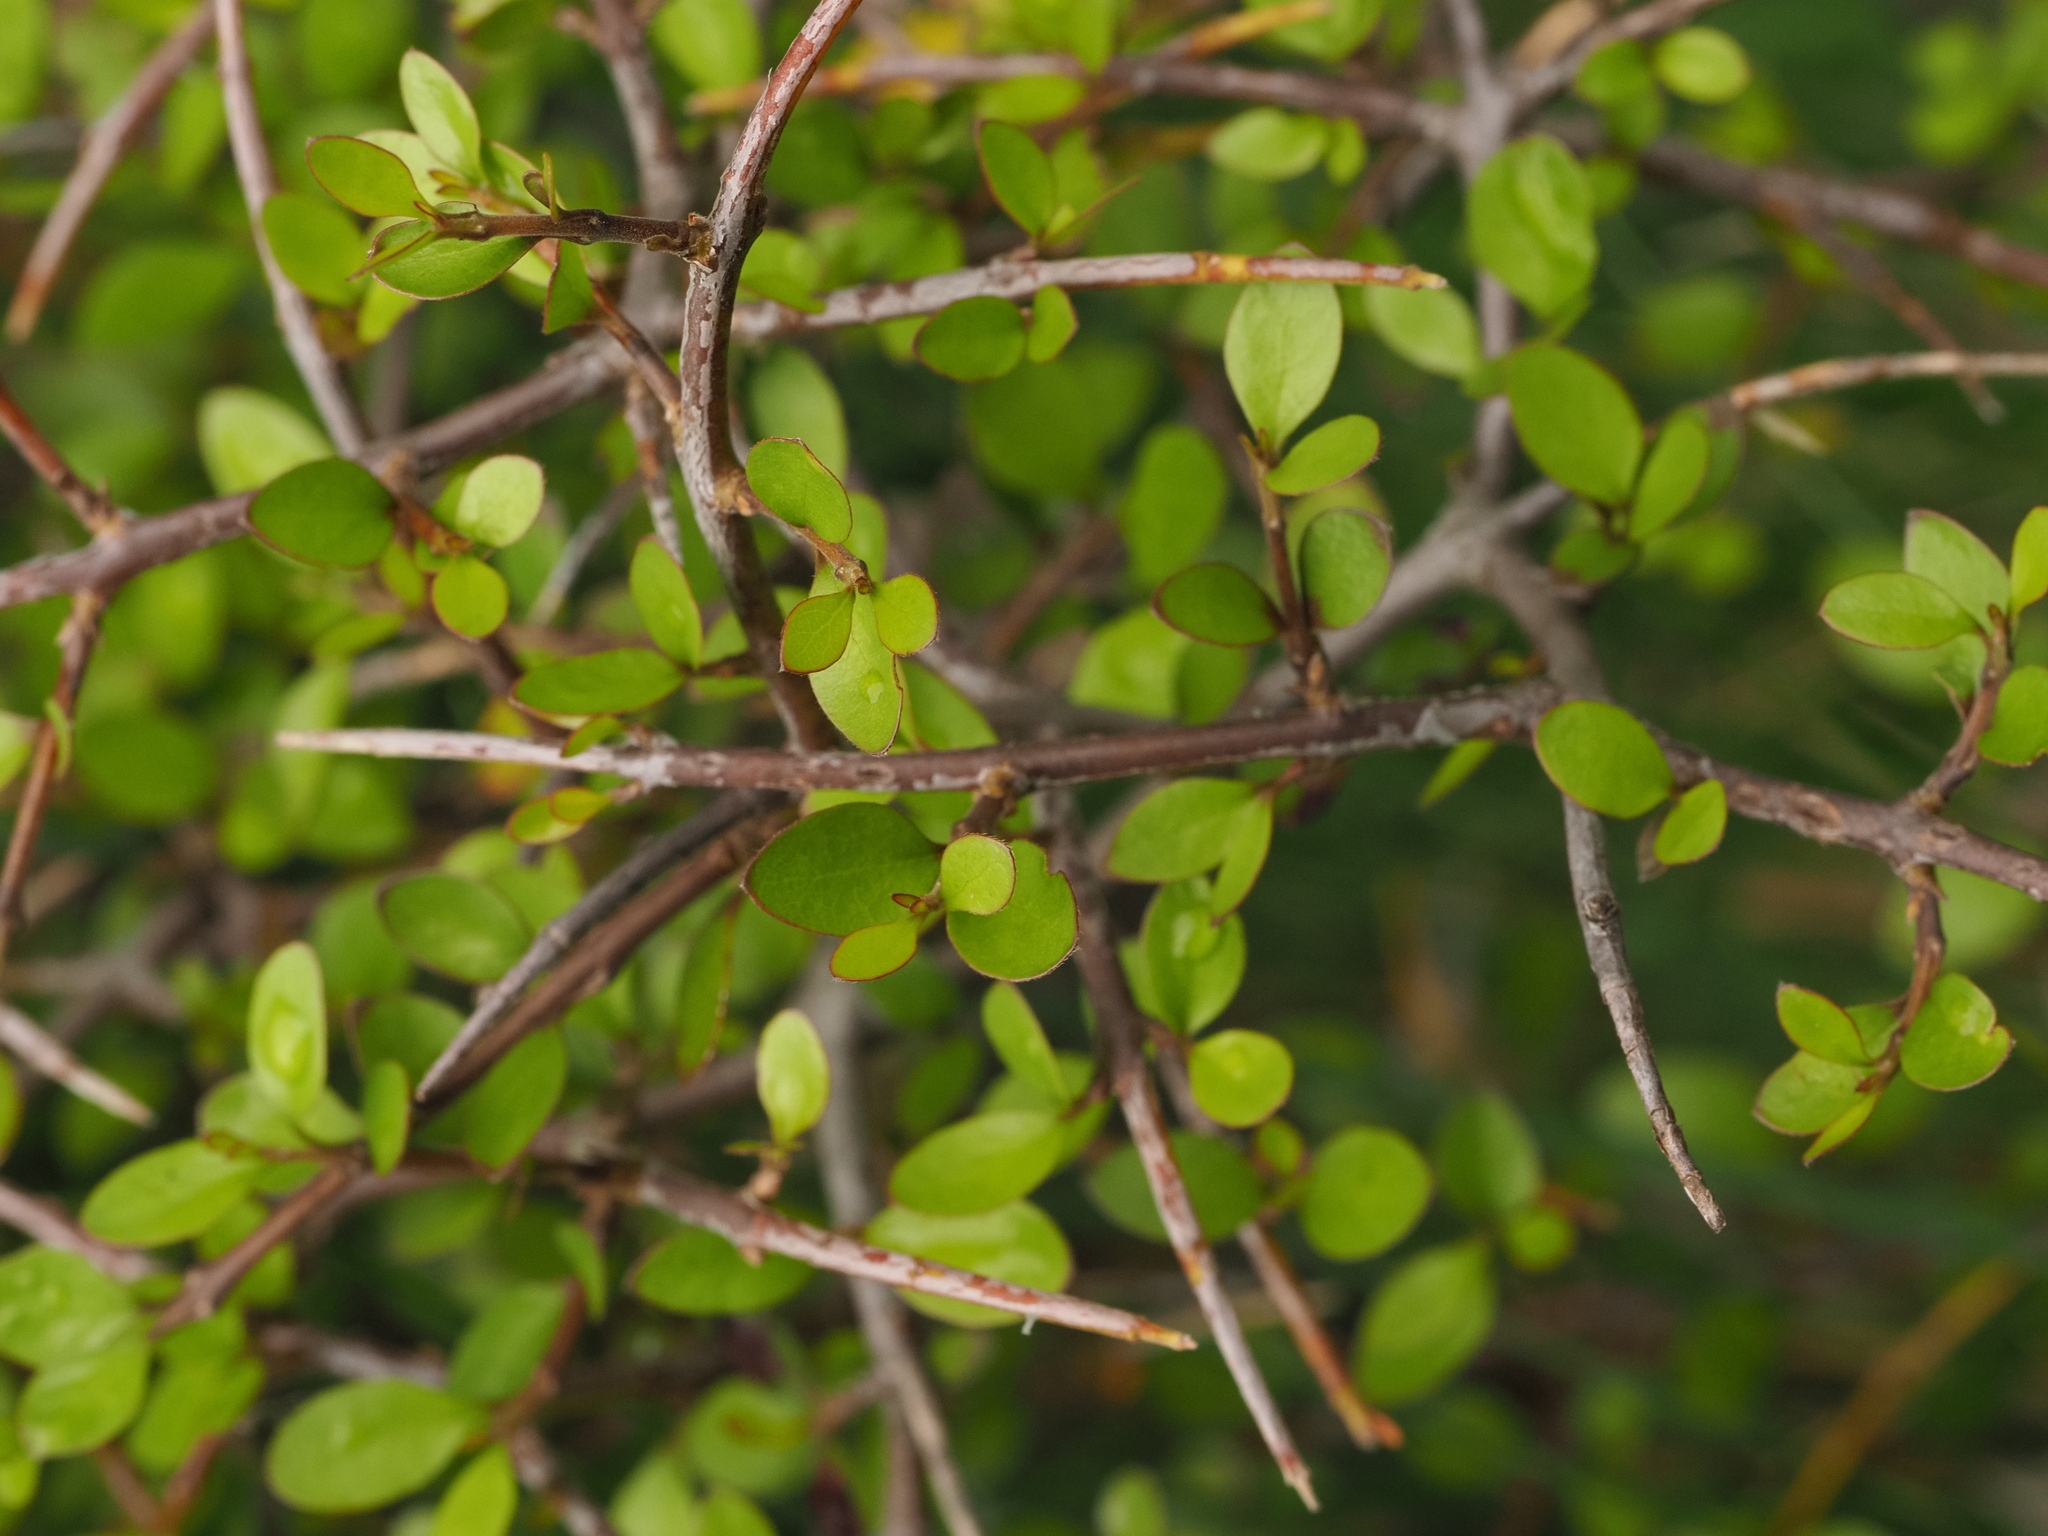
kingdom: Plantae
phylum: Tracheophyta
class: Magnoliopsida
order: Oxalidales
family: Elaeocarpaceae
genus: Aristotelia
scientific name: Aristotelia fruticosa
